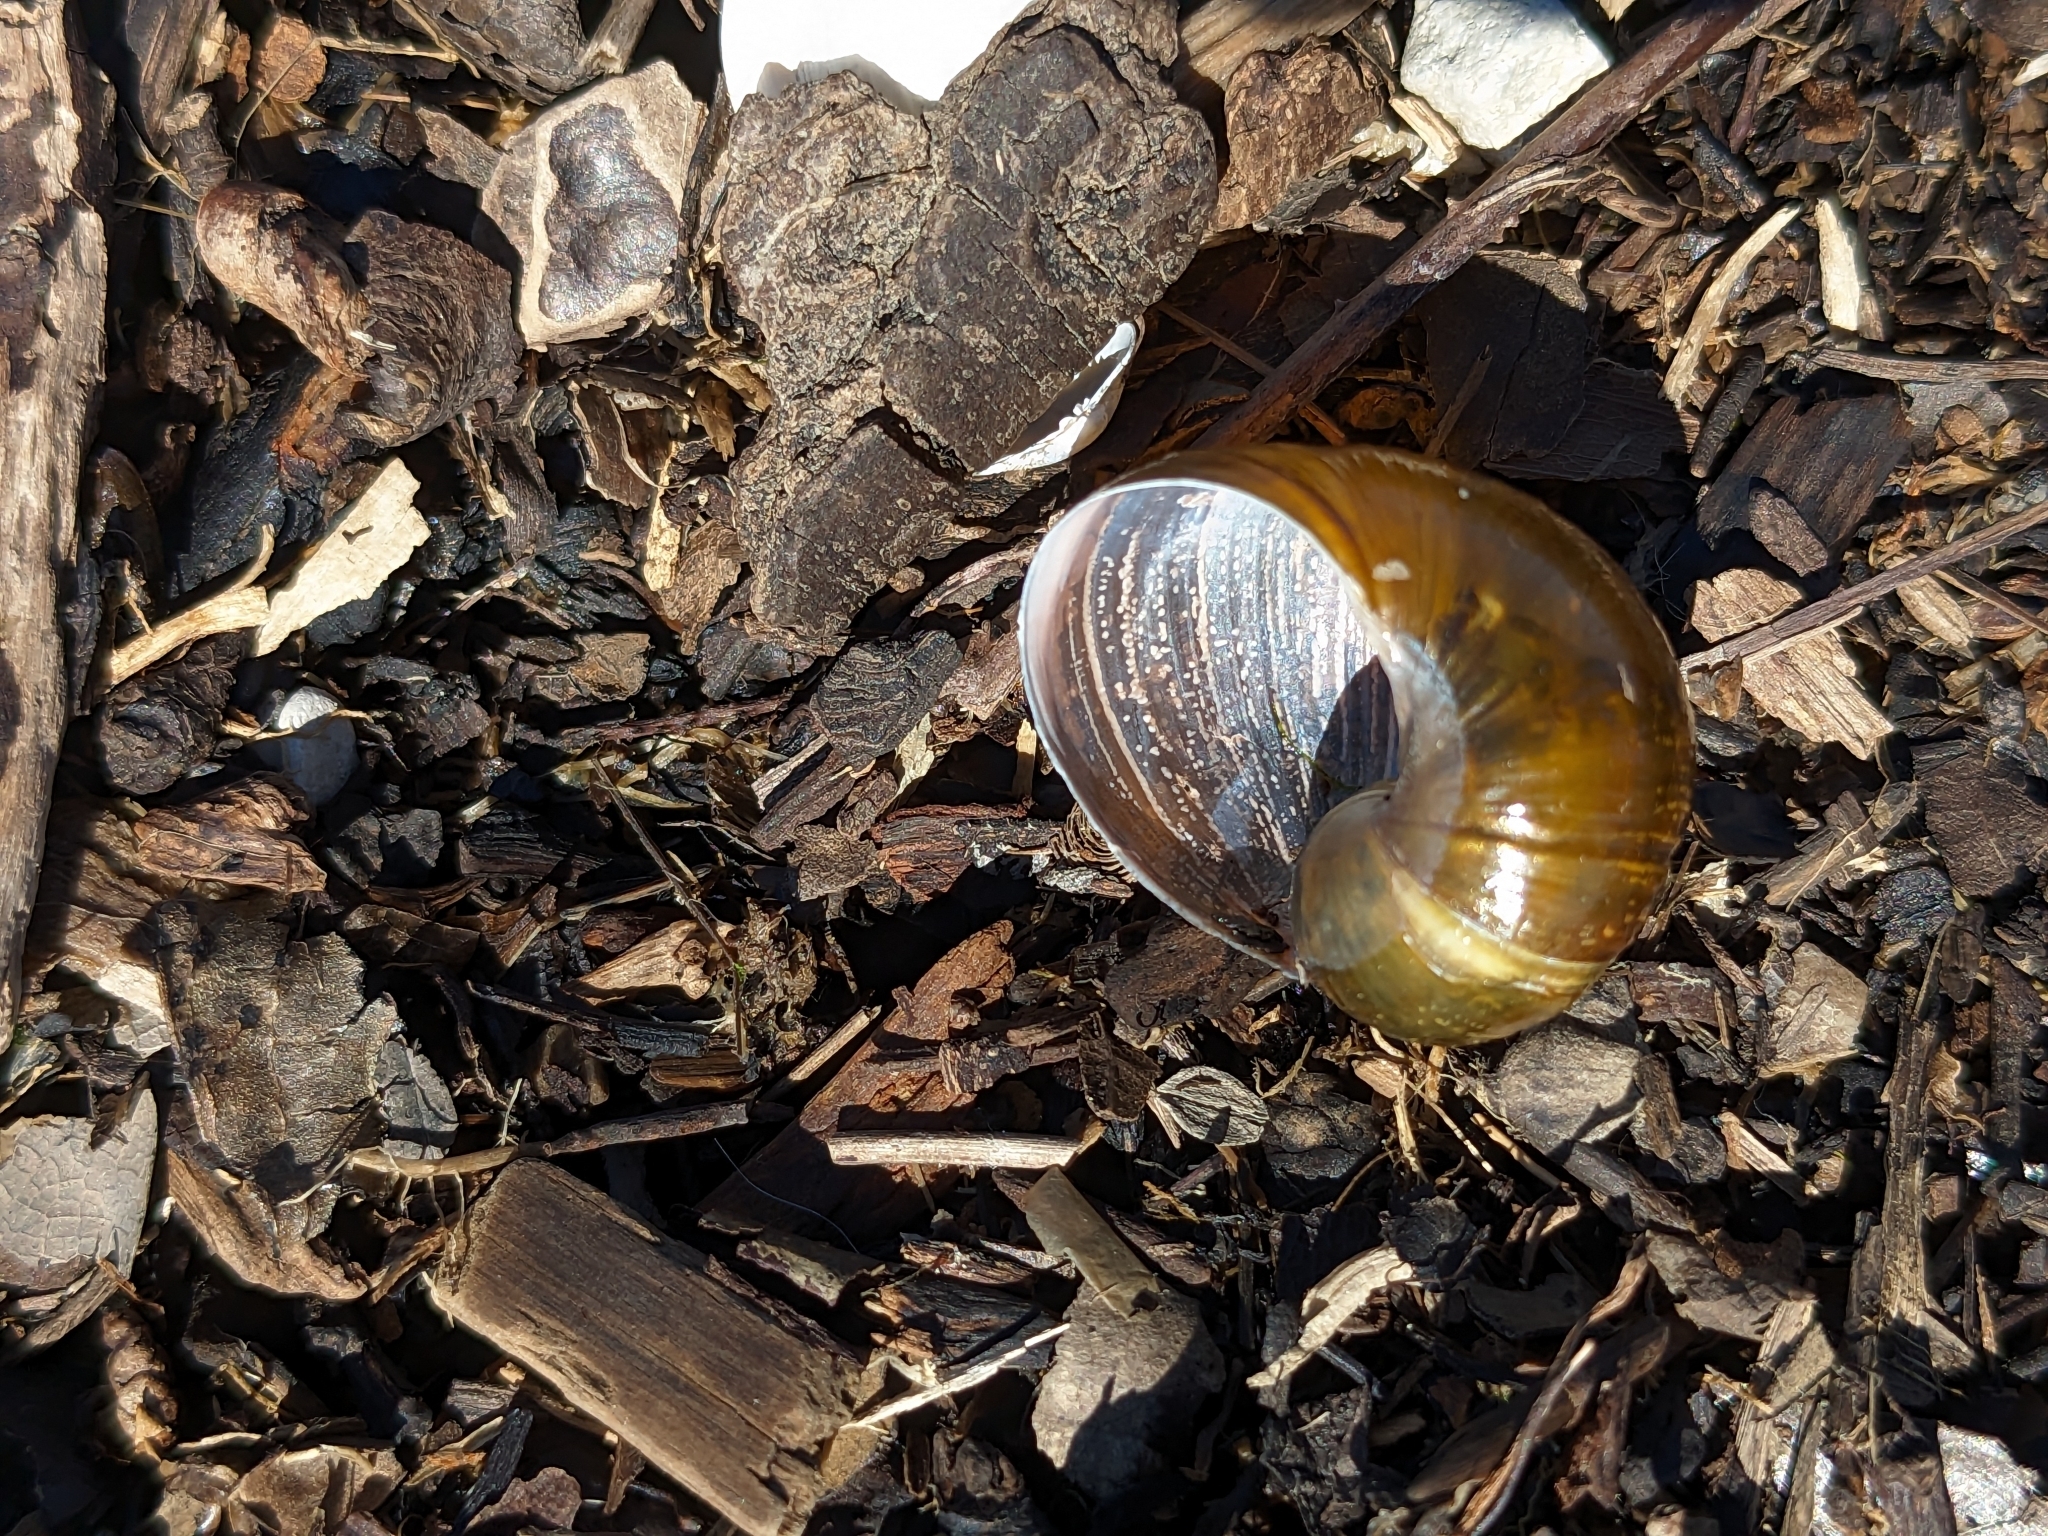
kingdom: Animalia
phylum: Mollusca
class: Gastropoda
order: Stylommatophora
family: Helicidae
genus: Cantareus
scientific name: Cantareus apertus
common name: Green gardensnail
